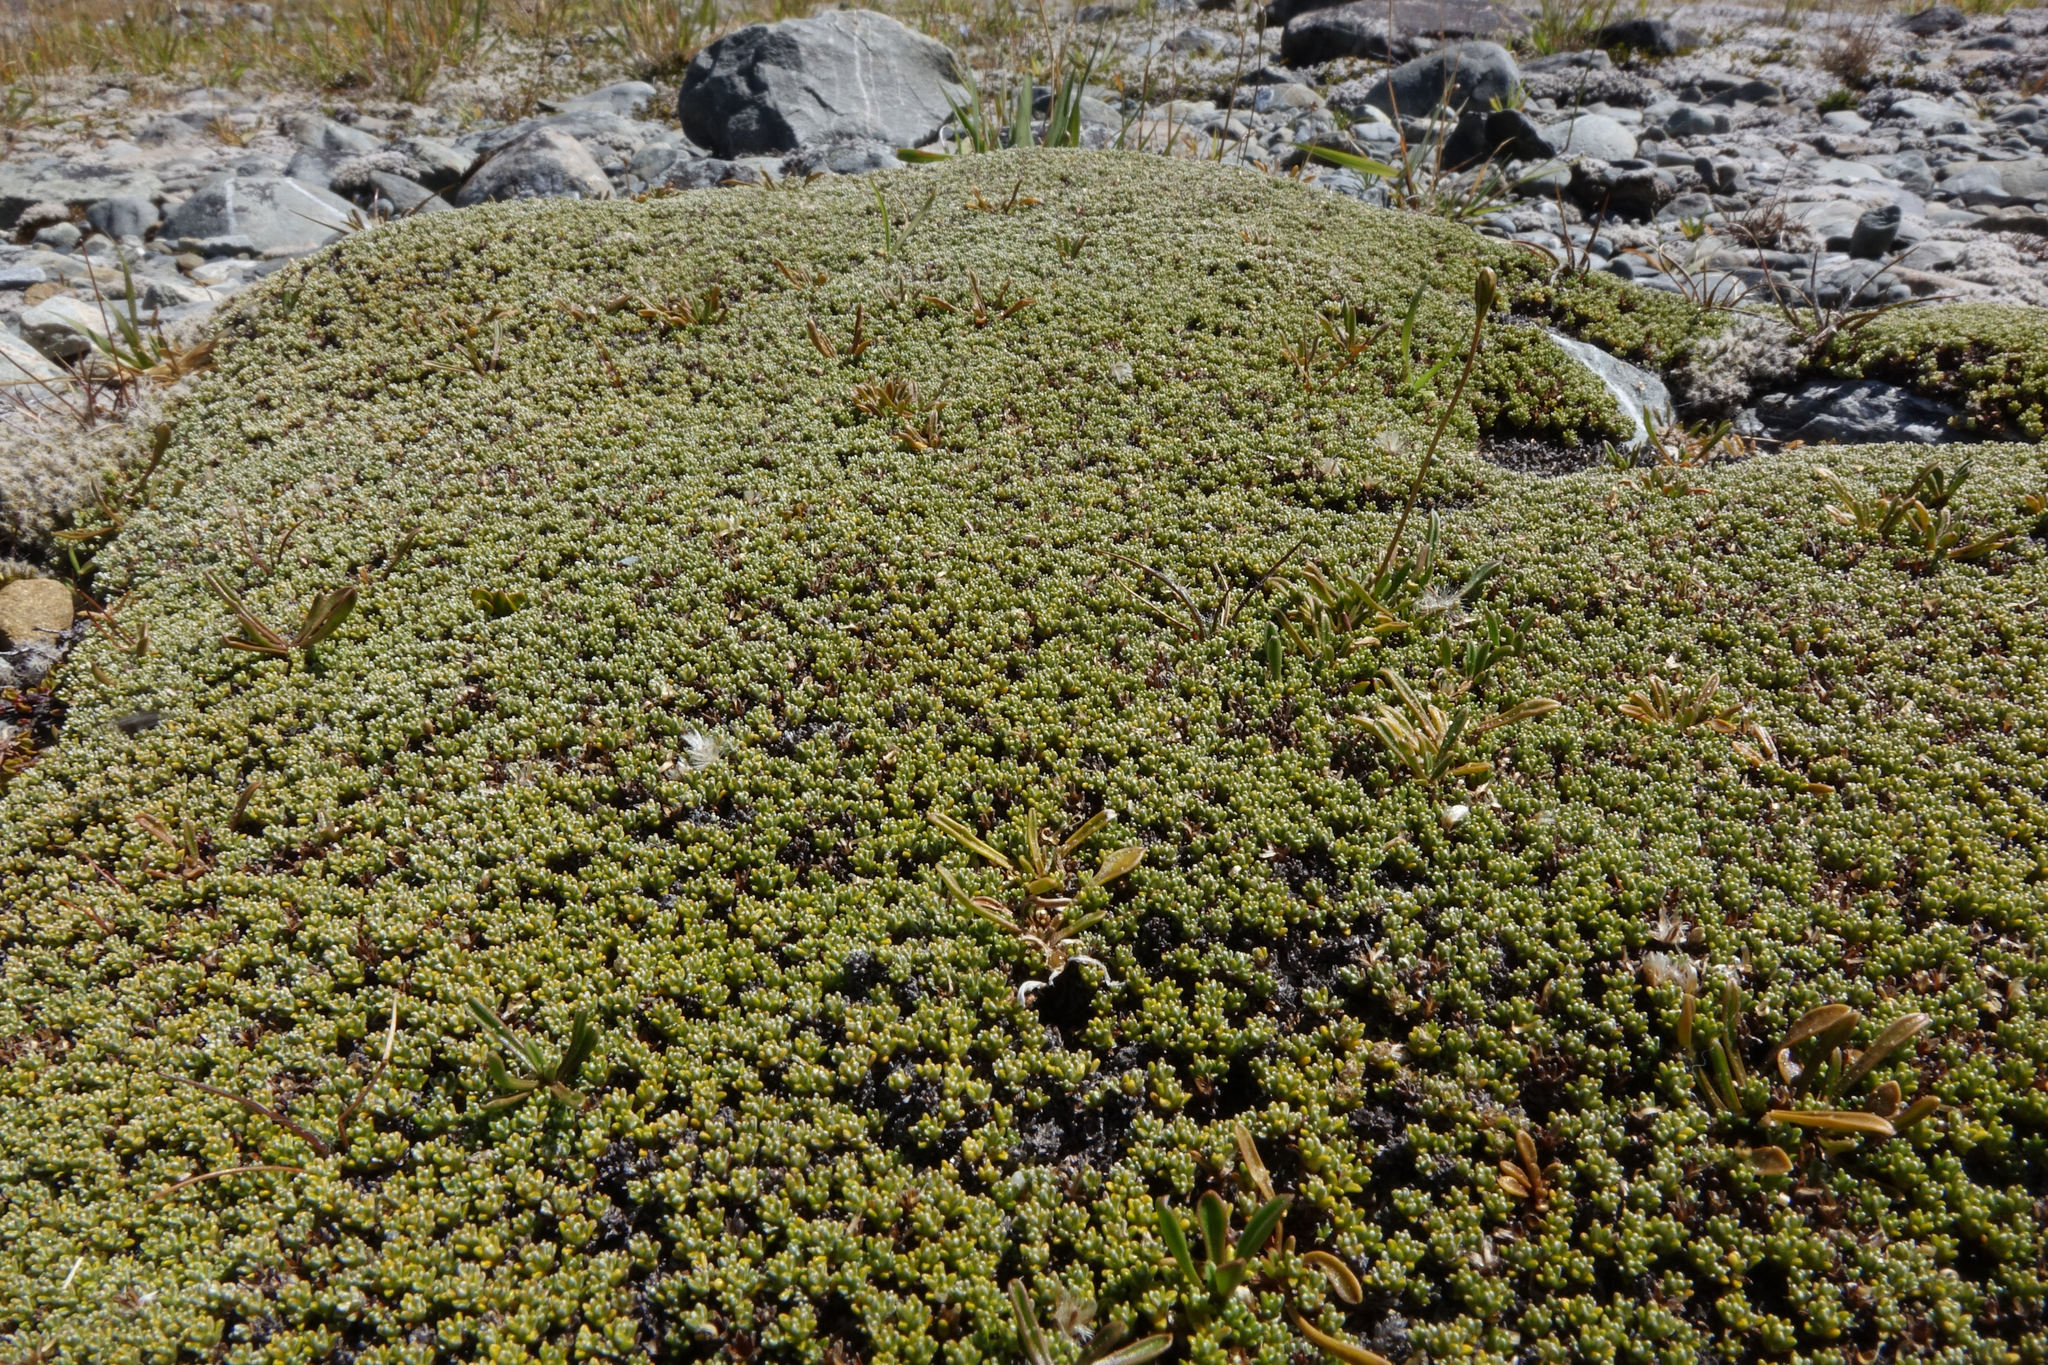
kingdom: Plantae
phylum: Tracheophyta
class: Magnoliopsida
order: Asterales
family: Asteraceae
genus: Raoulia
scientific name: Raoulia haastii
